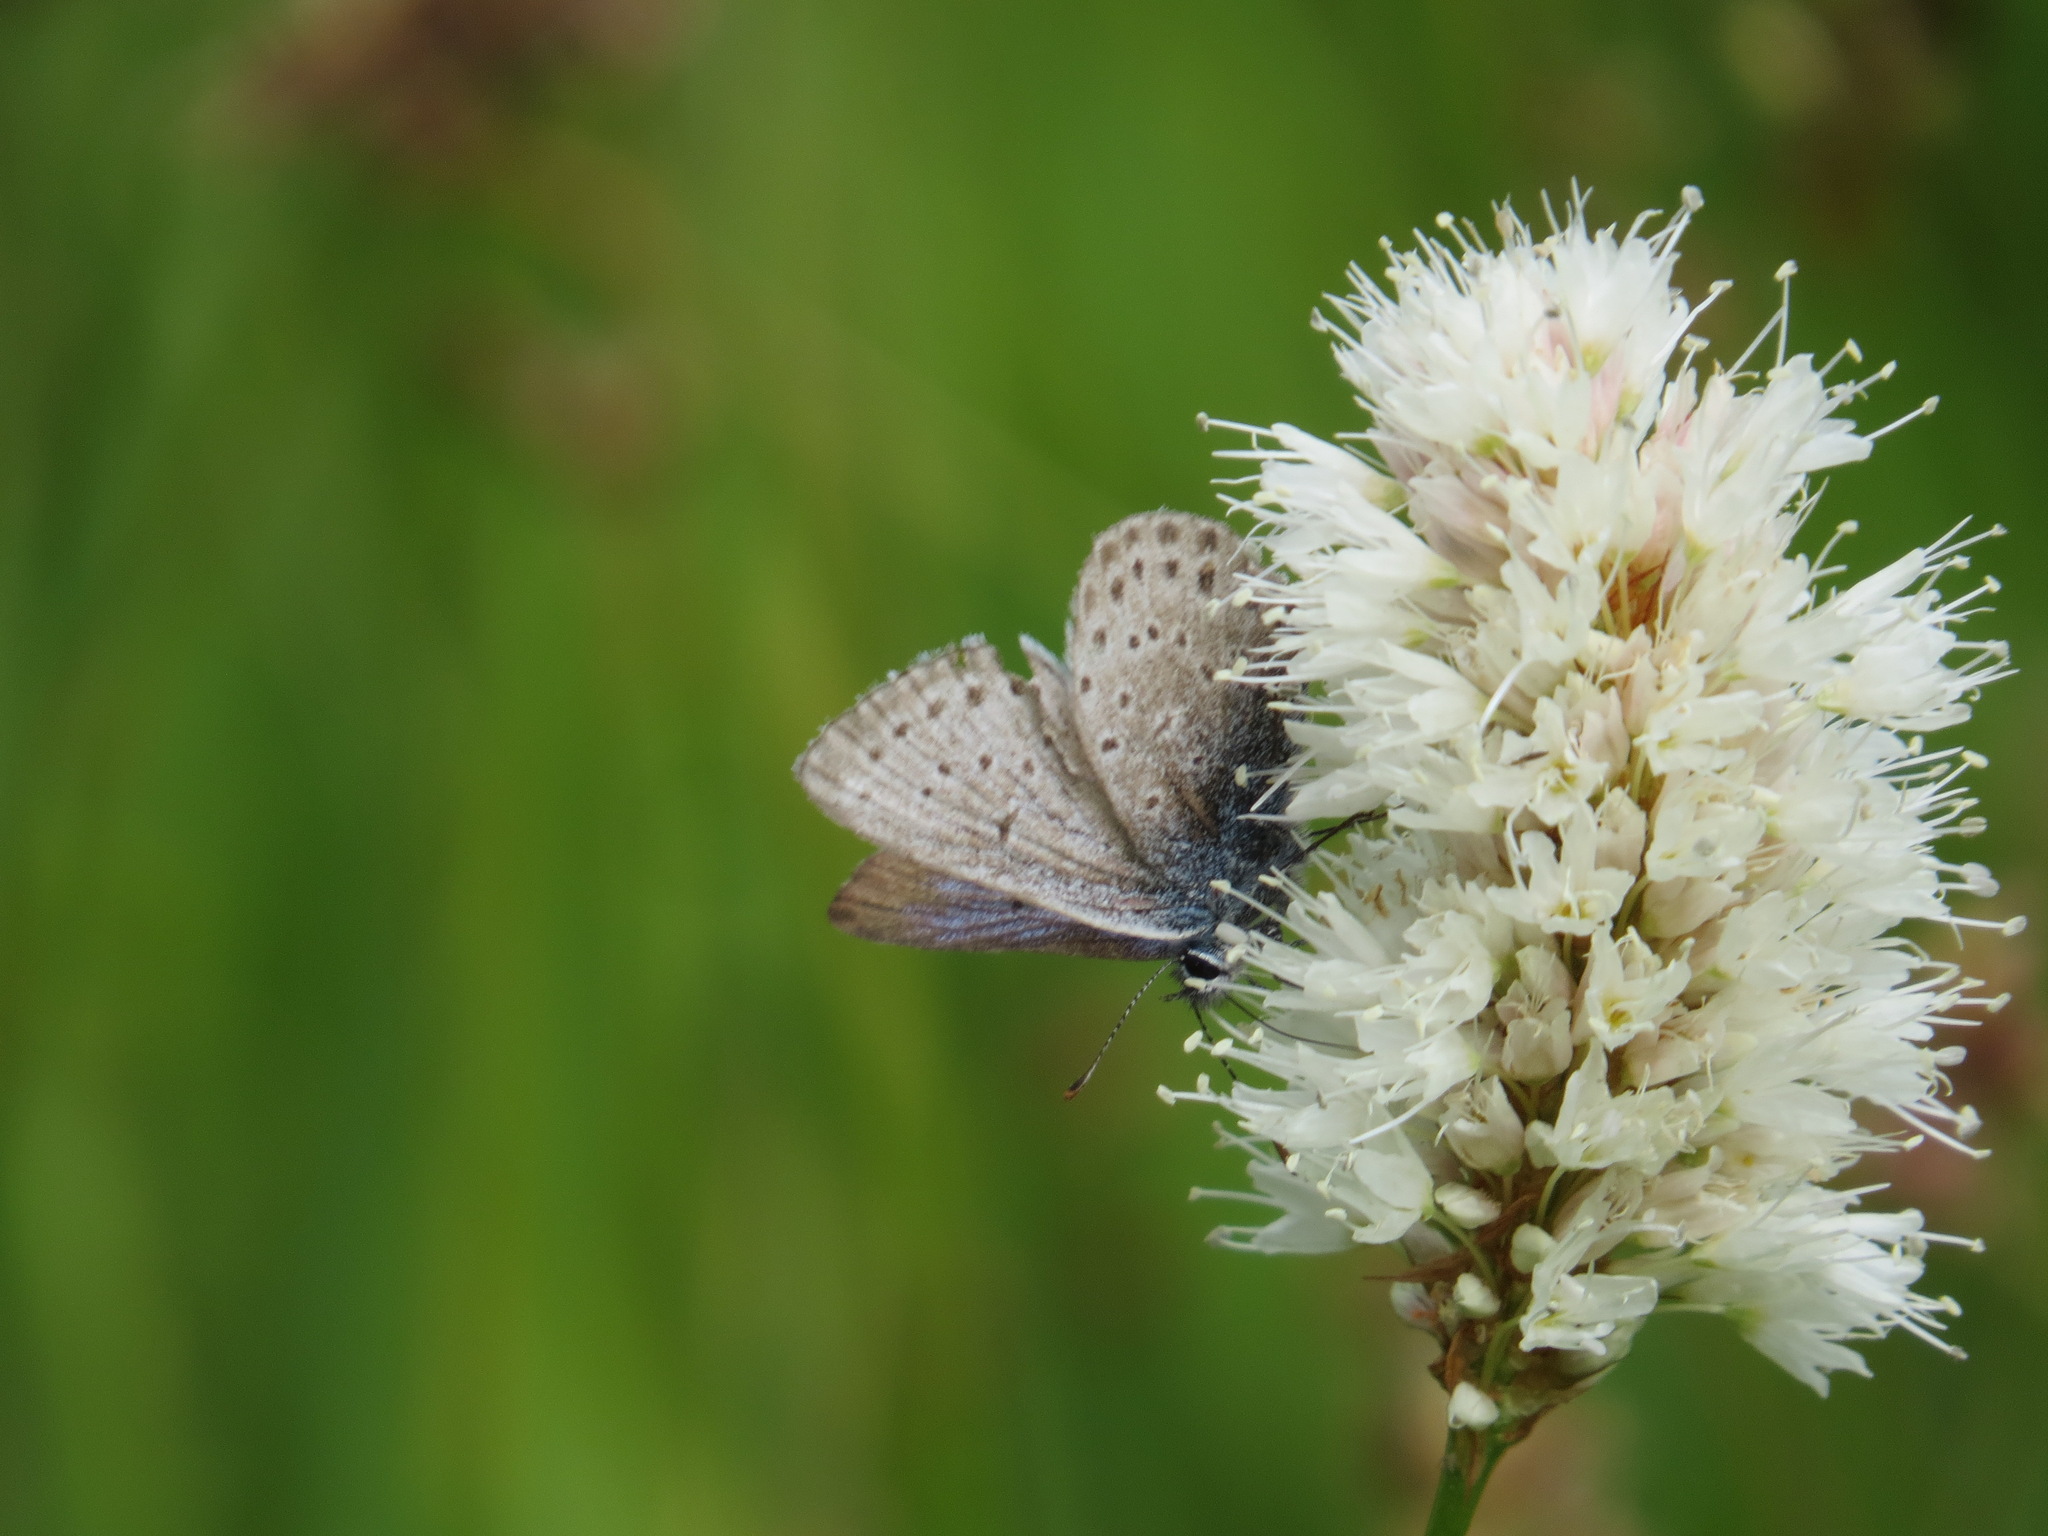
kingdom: Animalia
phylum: Arthropoda
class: Insecta
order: Lepidoptera
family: Lycaenidae
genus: Icaricia
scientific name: Icaricia saepiolus
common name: Greenish blue
